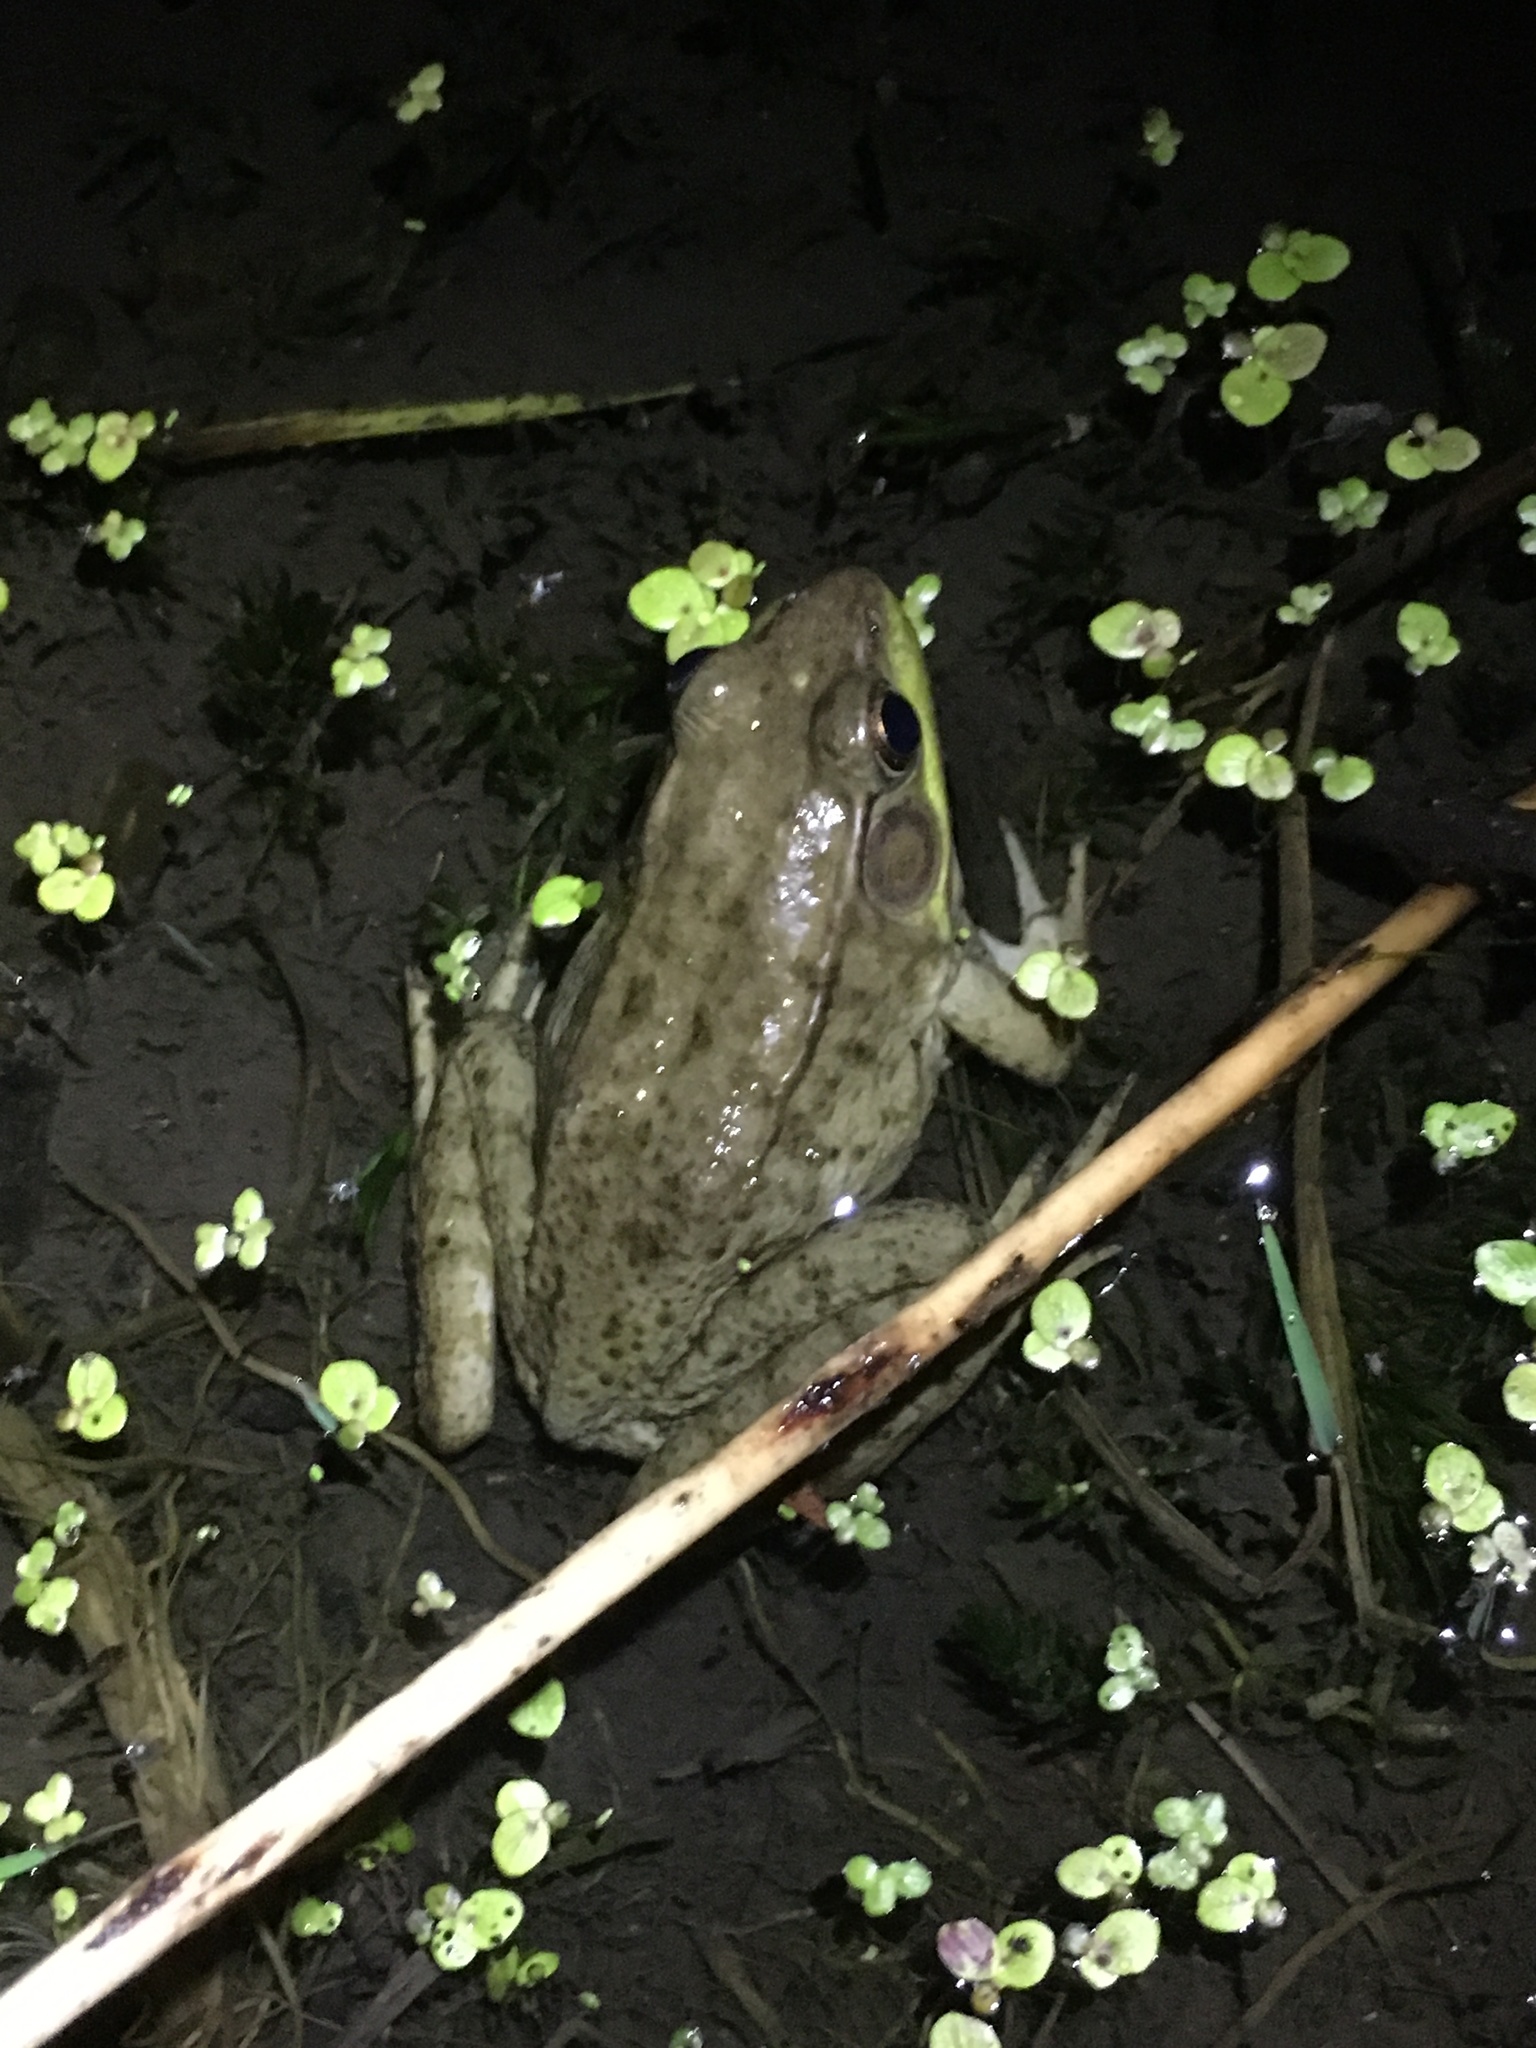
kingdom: Animalia
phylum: Chordata
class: Amphibia
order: Anura
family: Ranidae
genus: Lithobates
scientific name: Lithobates clamitans
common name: Green frog
